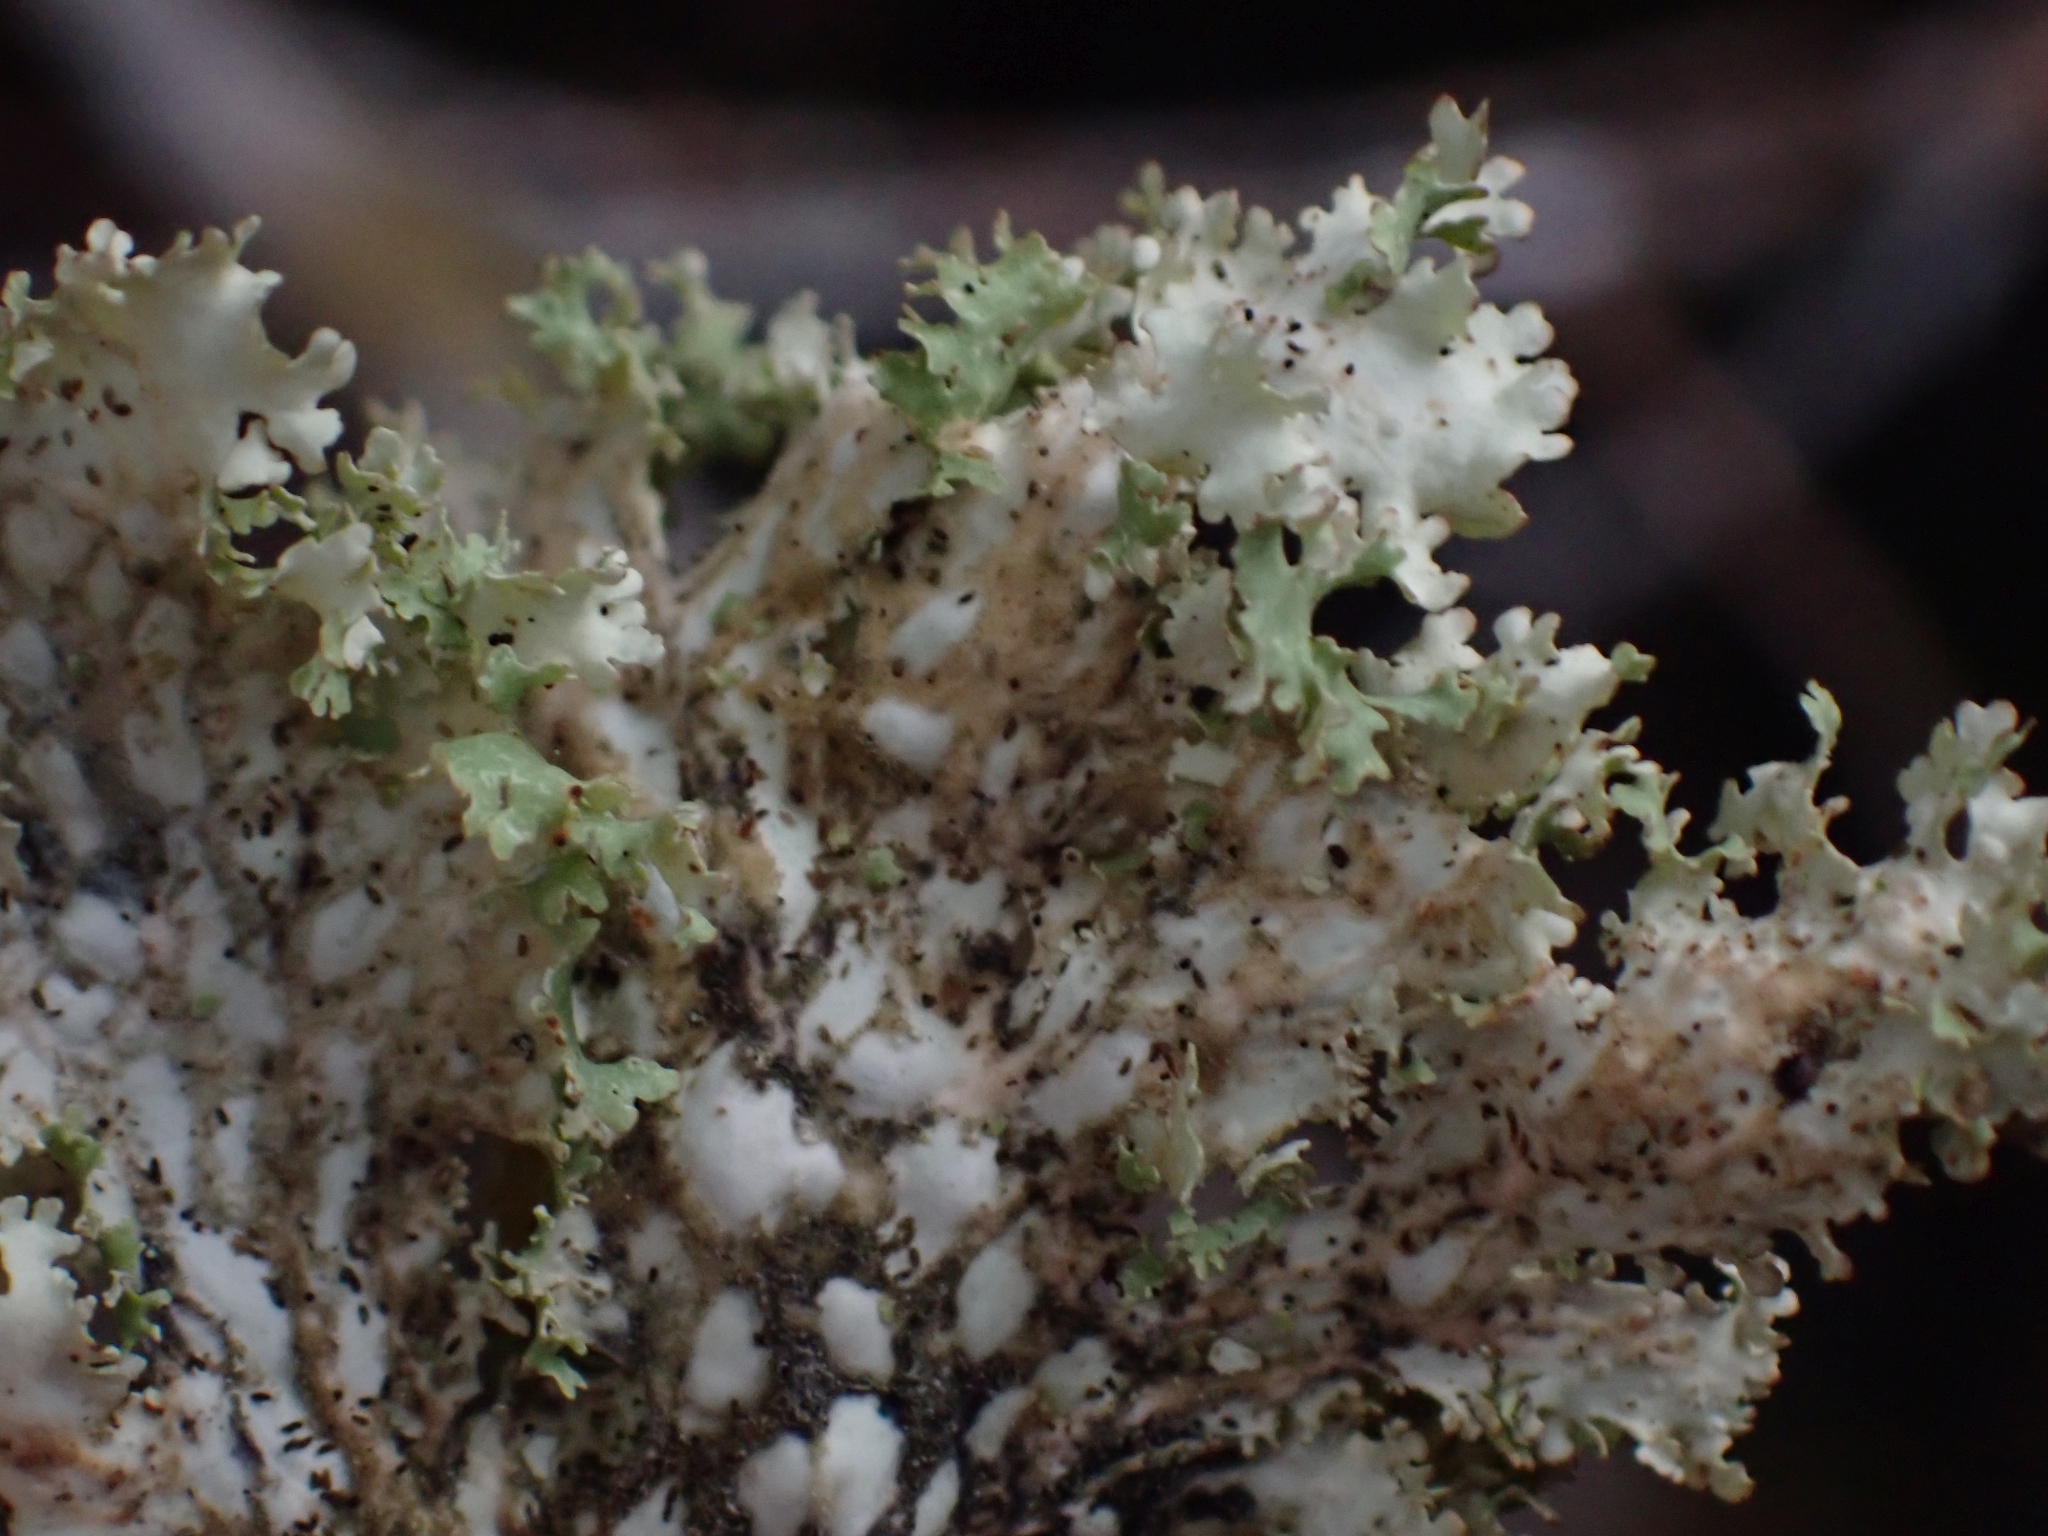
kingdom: Fungi
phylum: Ascomycota
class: Lecanoromycetes
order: Peltigerales
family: Lobariaceae
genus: Lobaria
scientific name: Lobaria oregana
